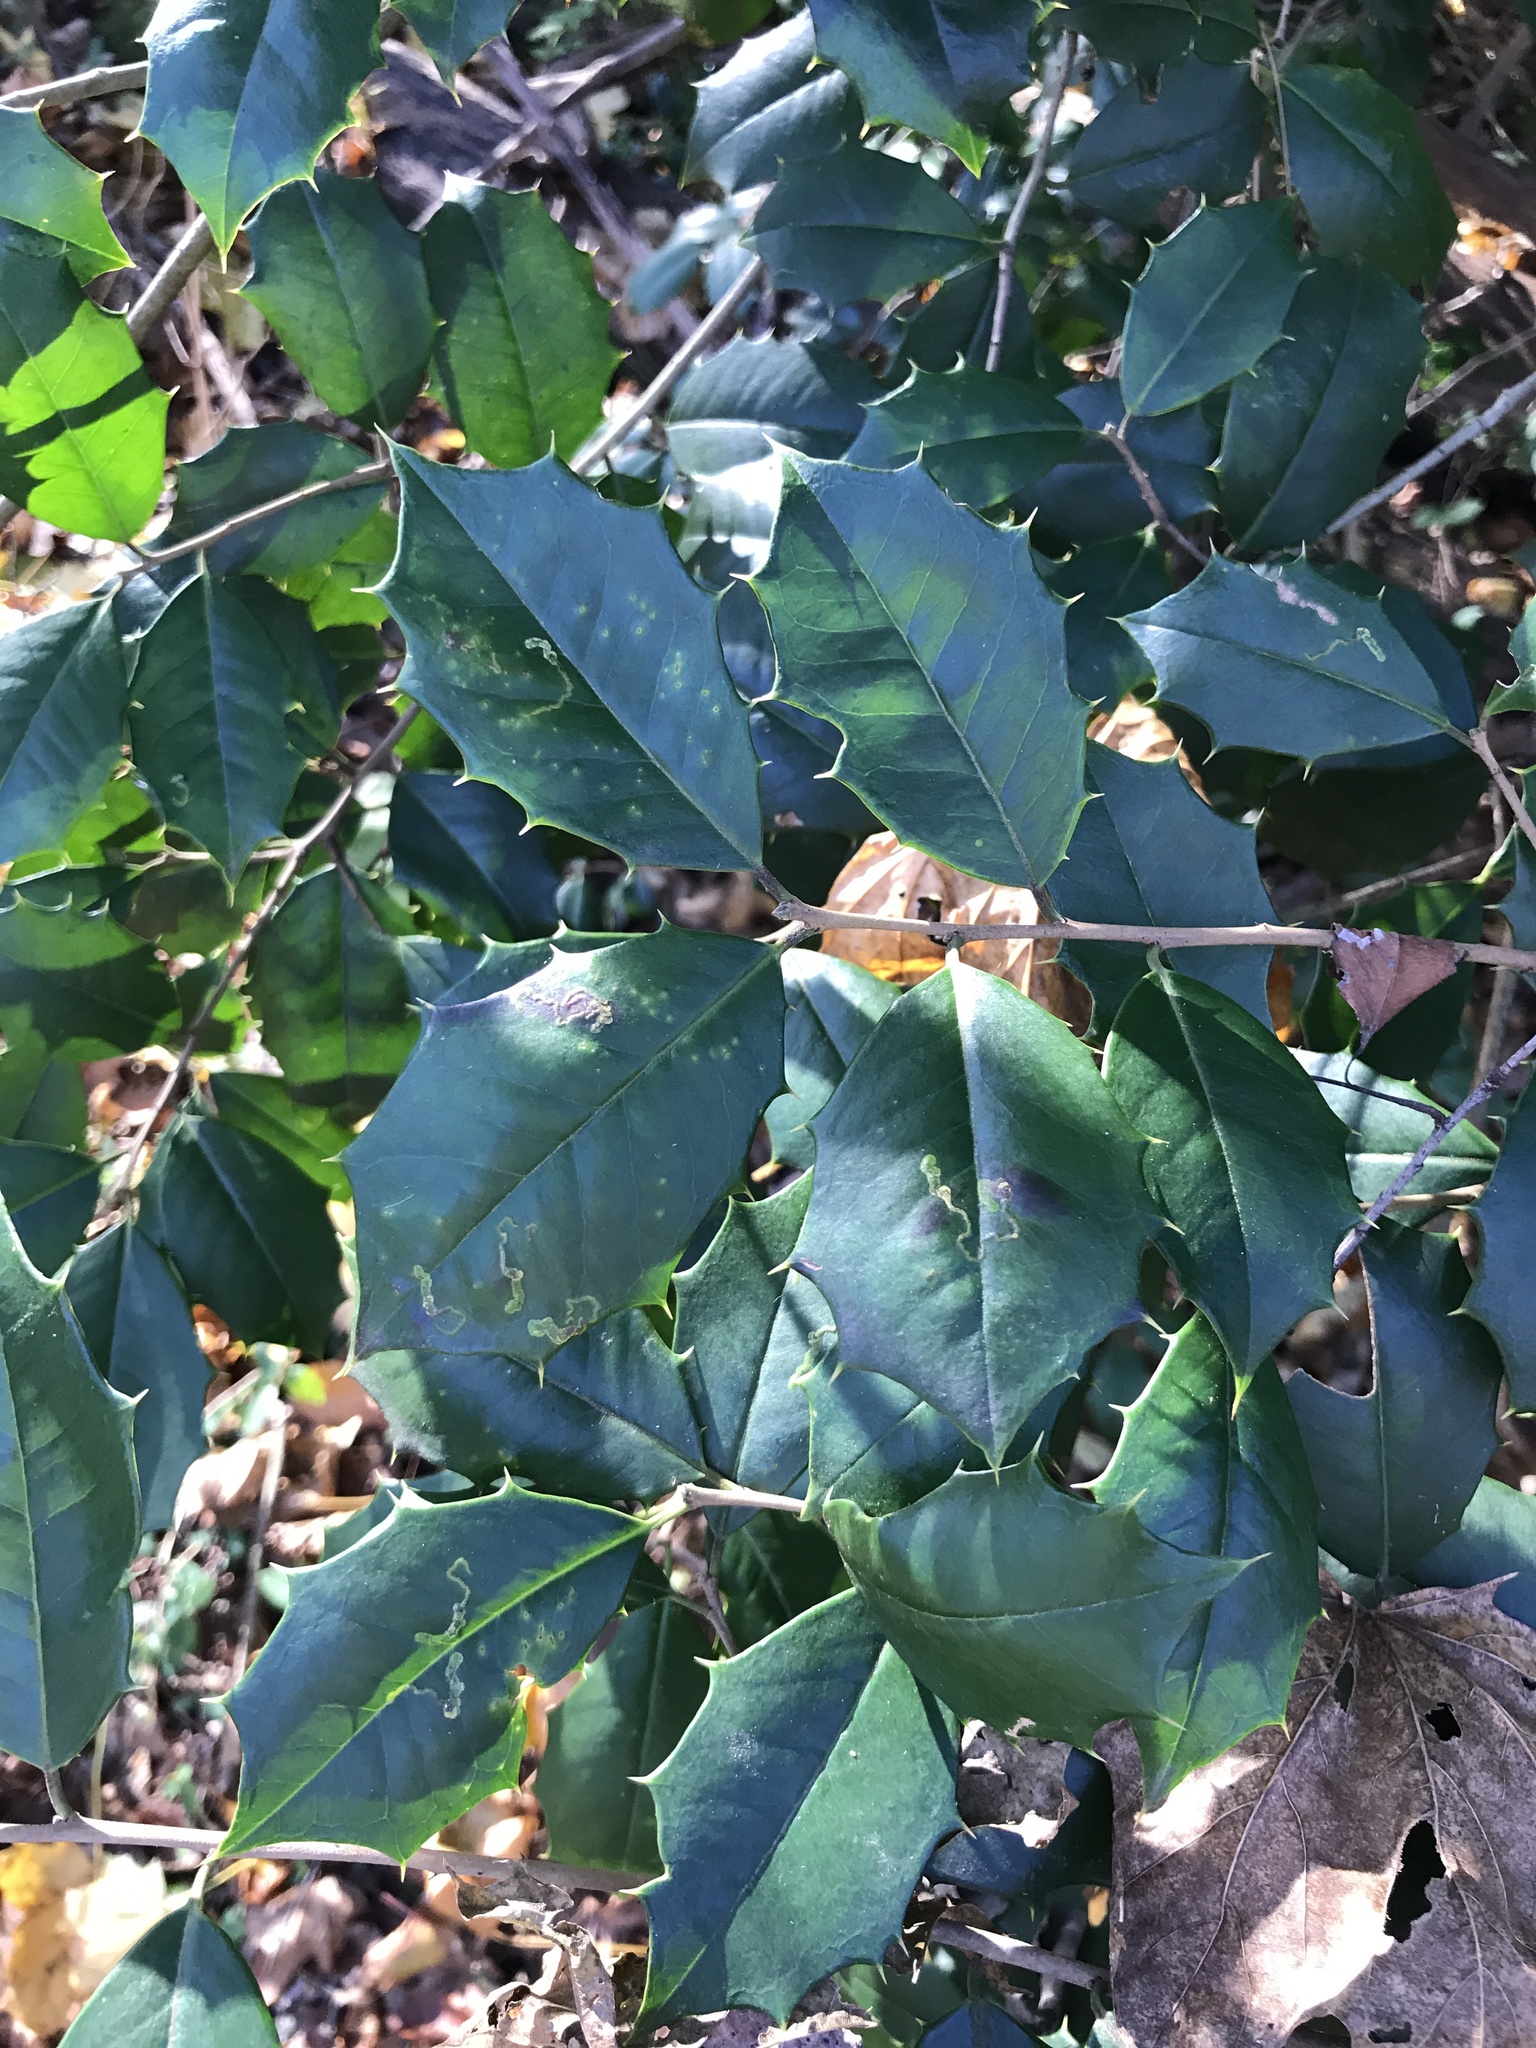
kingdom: Plantae
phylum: Tracheophyta
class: Magnoliopsida
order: Aquifoliales
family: Aquifoliaceae
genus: Ilex
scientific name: Ilex opaca
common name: American holly
